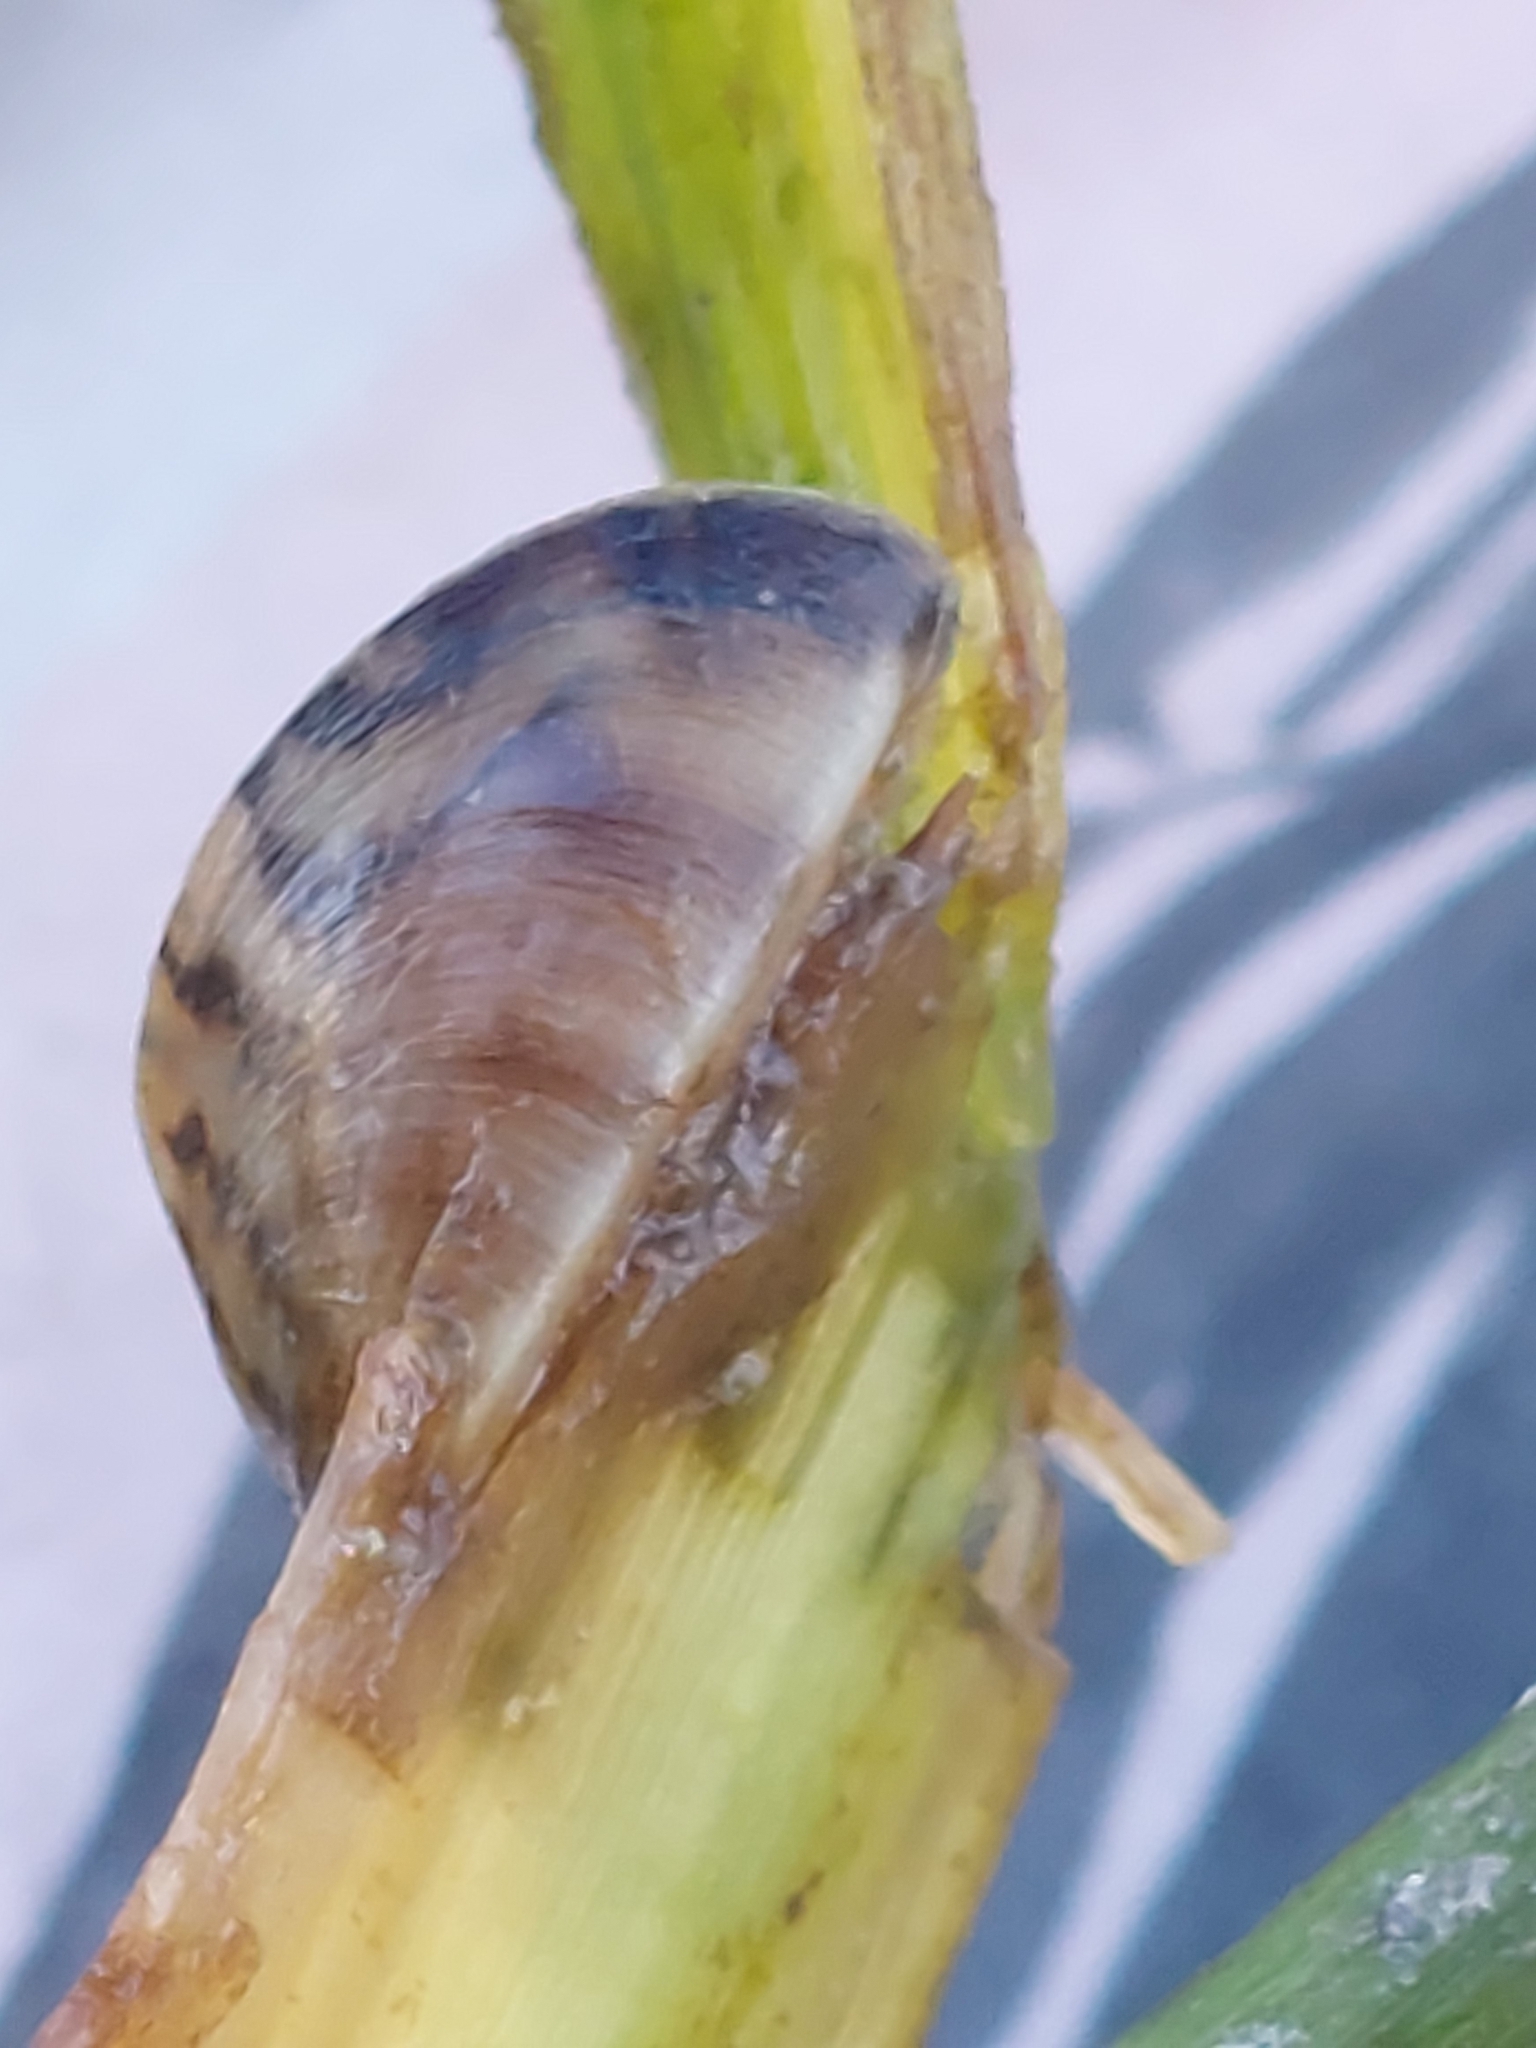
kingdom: Animalia
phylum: Mollusca
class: Bivalvia
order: Myida
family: Dreissenidae
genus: Dreissena
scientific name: Dreissena polymorpha
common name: Zebra mussel
